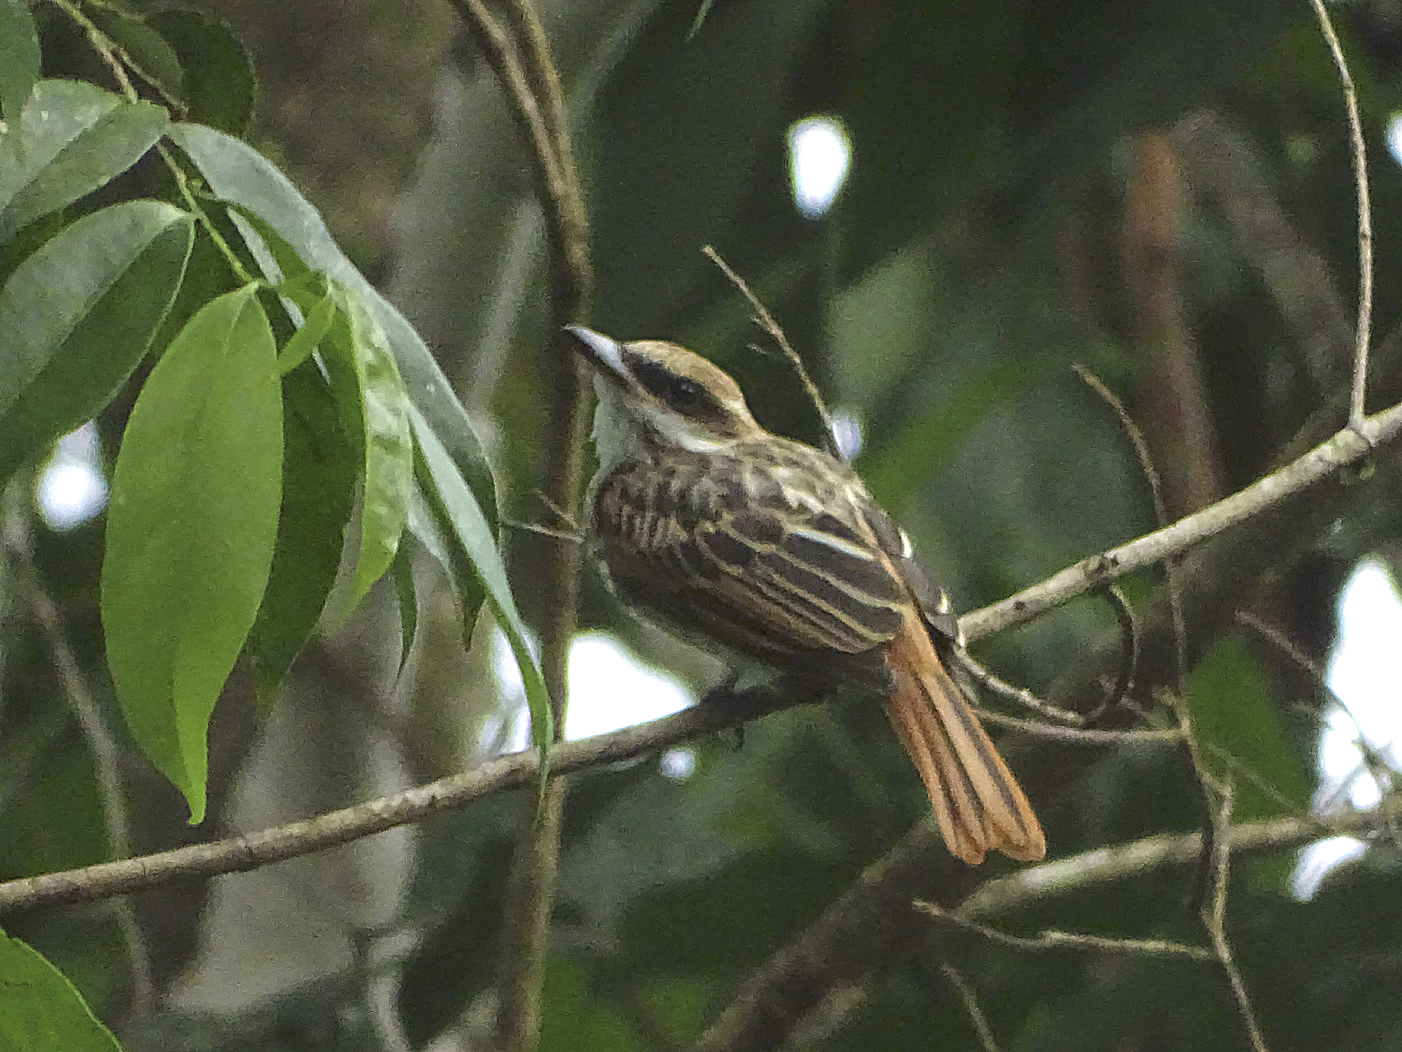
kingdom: Animalia
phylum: Chordata
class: Aves
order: Passeriformes
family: Tyrannidae
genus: Myiodynastes
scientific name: Myiodynastes maculatus
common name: Streaked flycatcher
